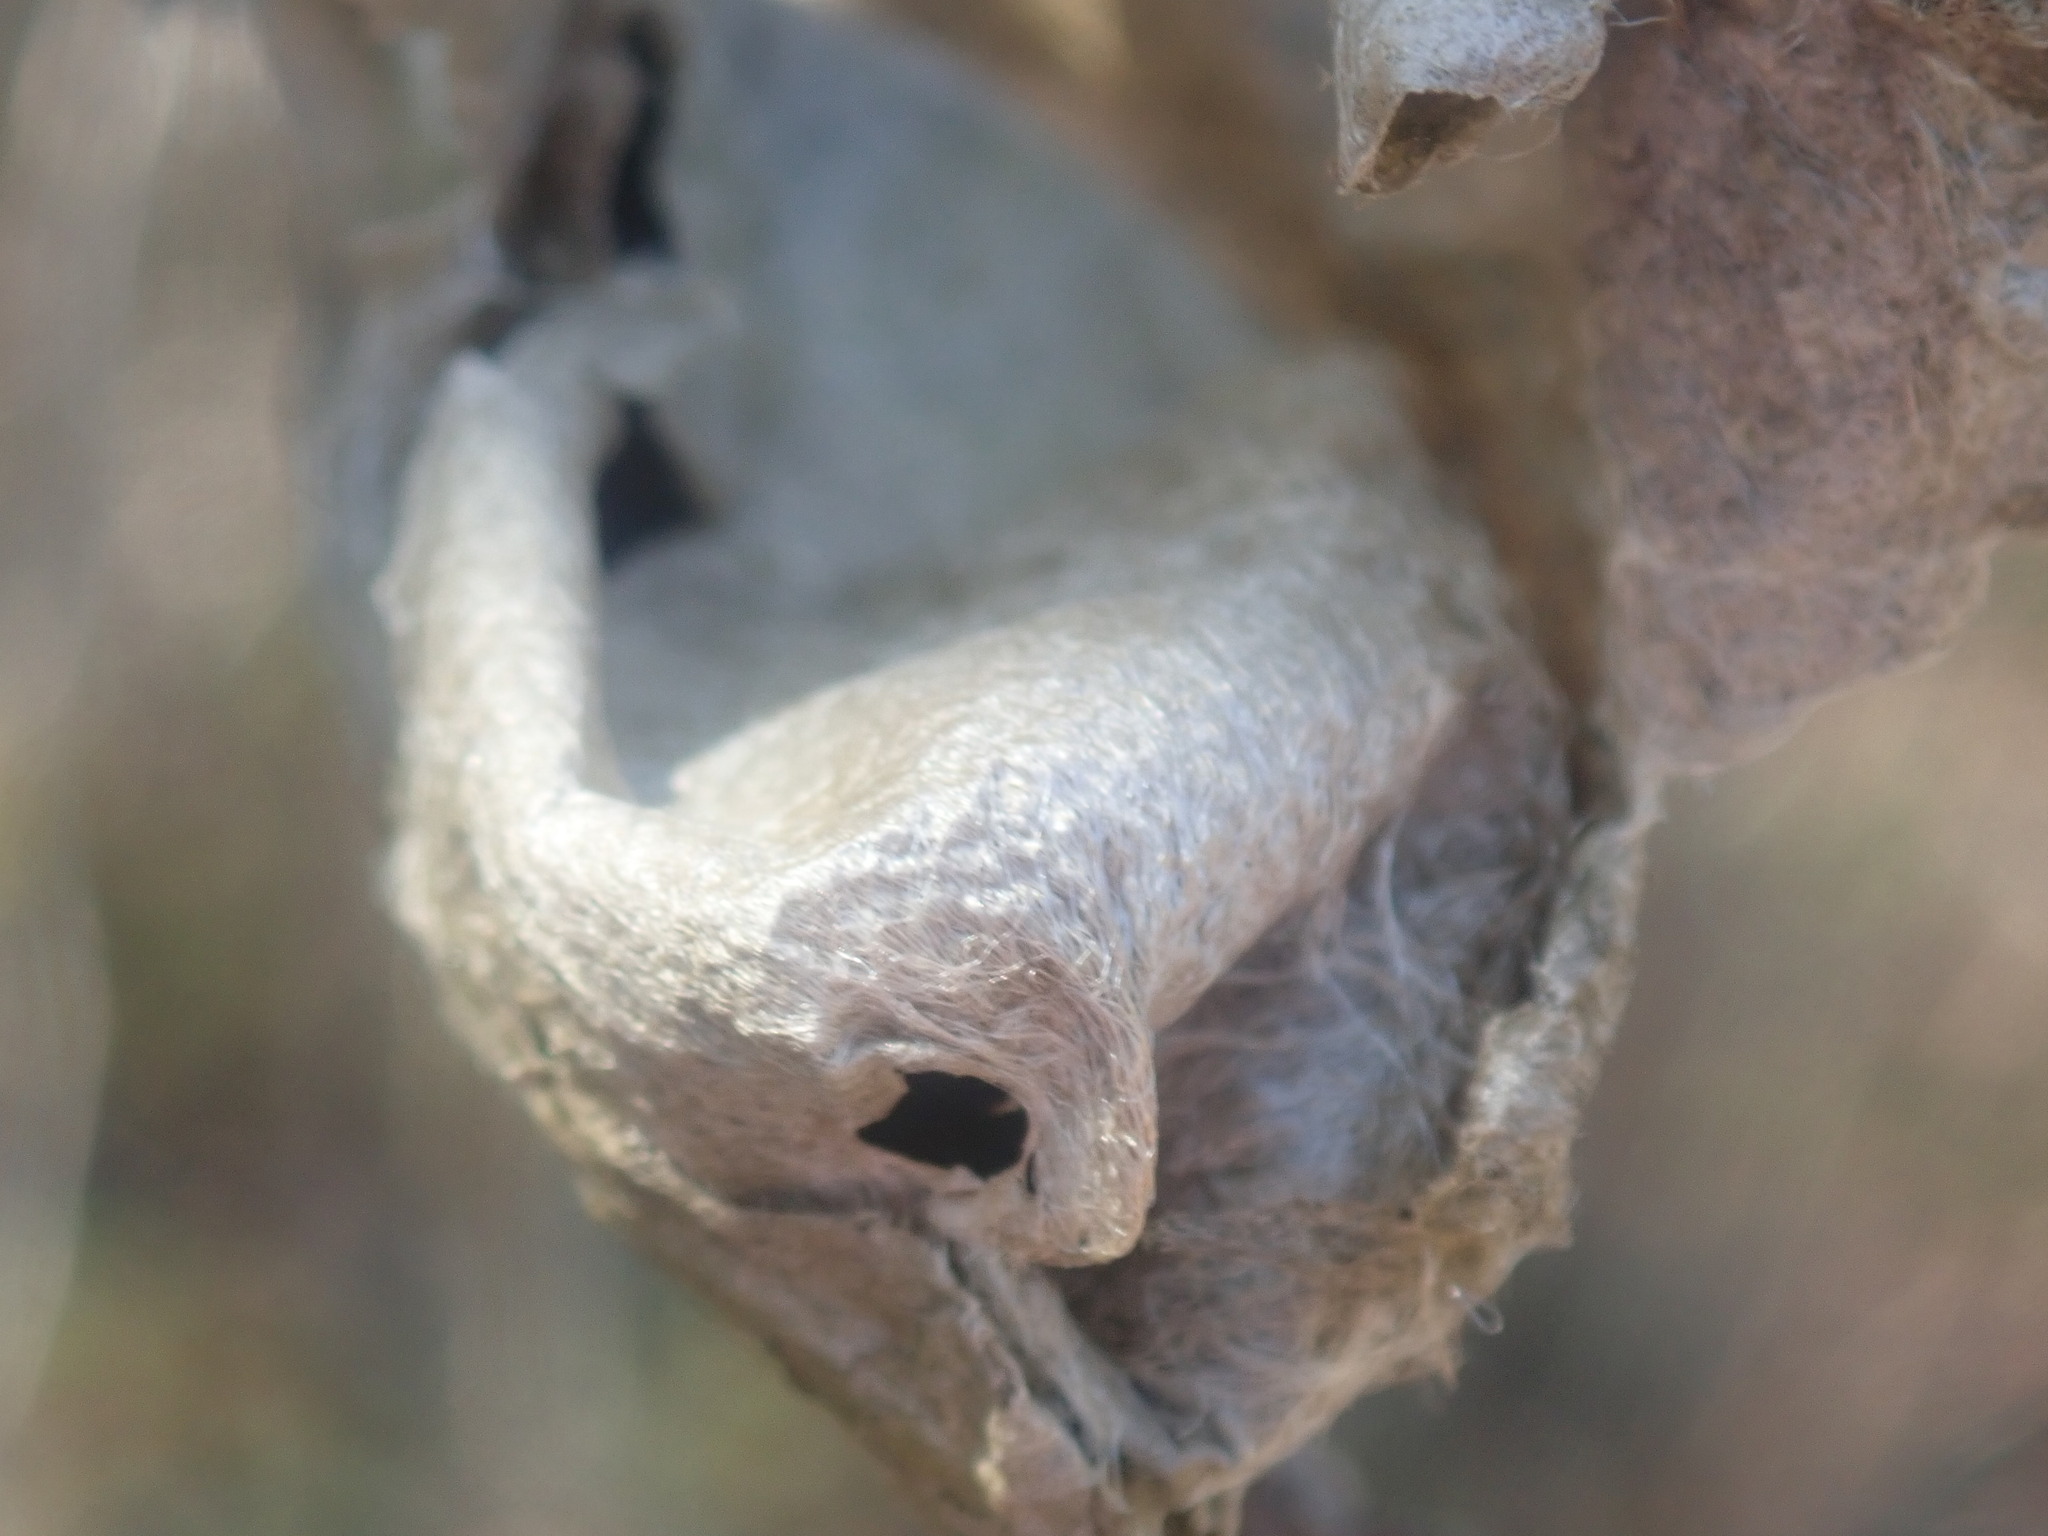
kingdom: Animalia
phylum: Arthropoda
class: Insecta
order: Lepidoptera
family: Saturniidae
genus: Hyalophora
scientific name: Hyalophora cecropia
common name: Cecropia silkmoth
